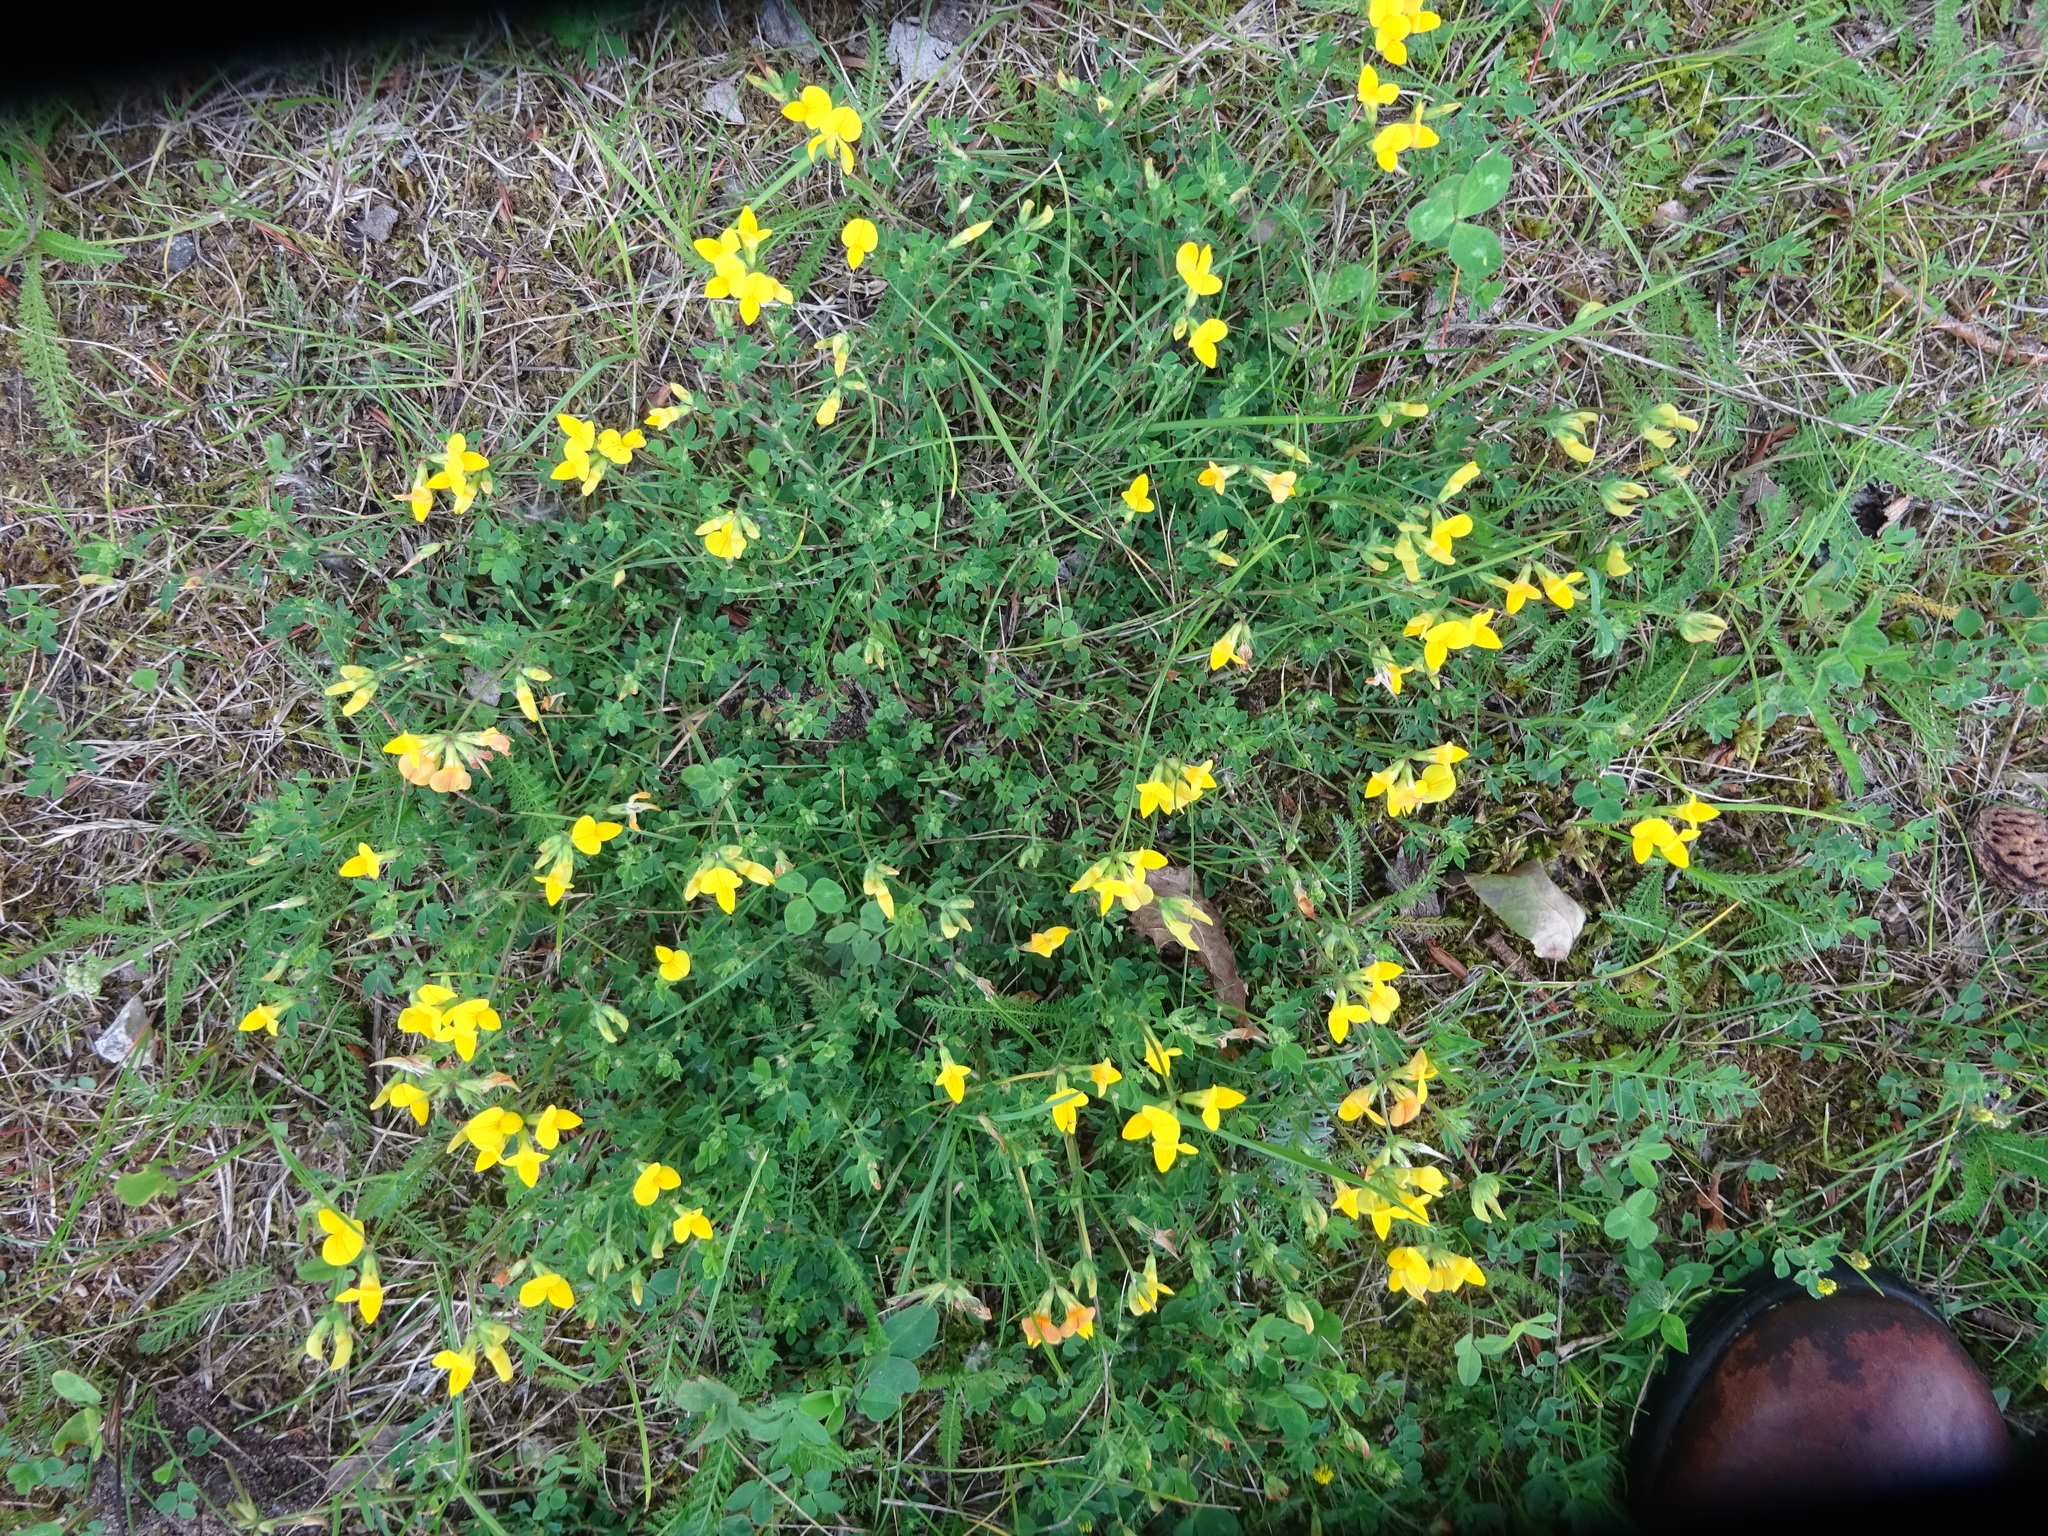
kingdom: Plantae
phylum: Tracheophyta
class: Magnoliopsida
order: Fabales
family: Fabaceae
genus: Lotus
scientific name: Lotus corniculatus
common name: Common bird's-foot-trefoil
